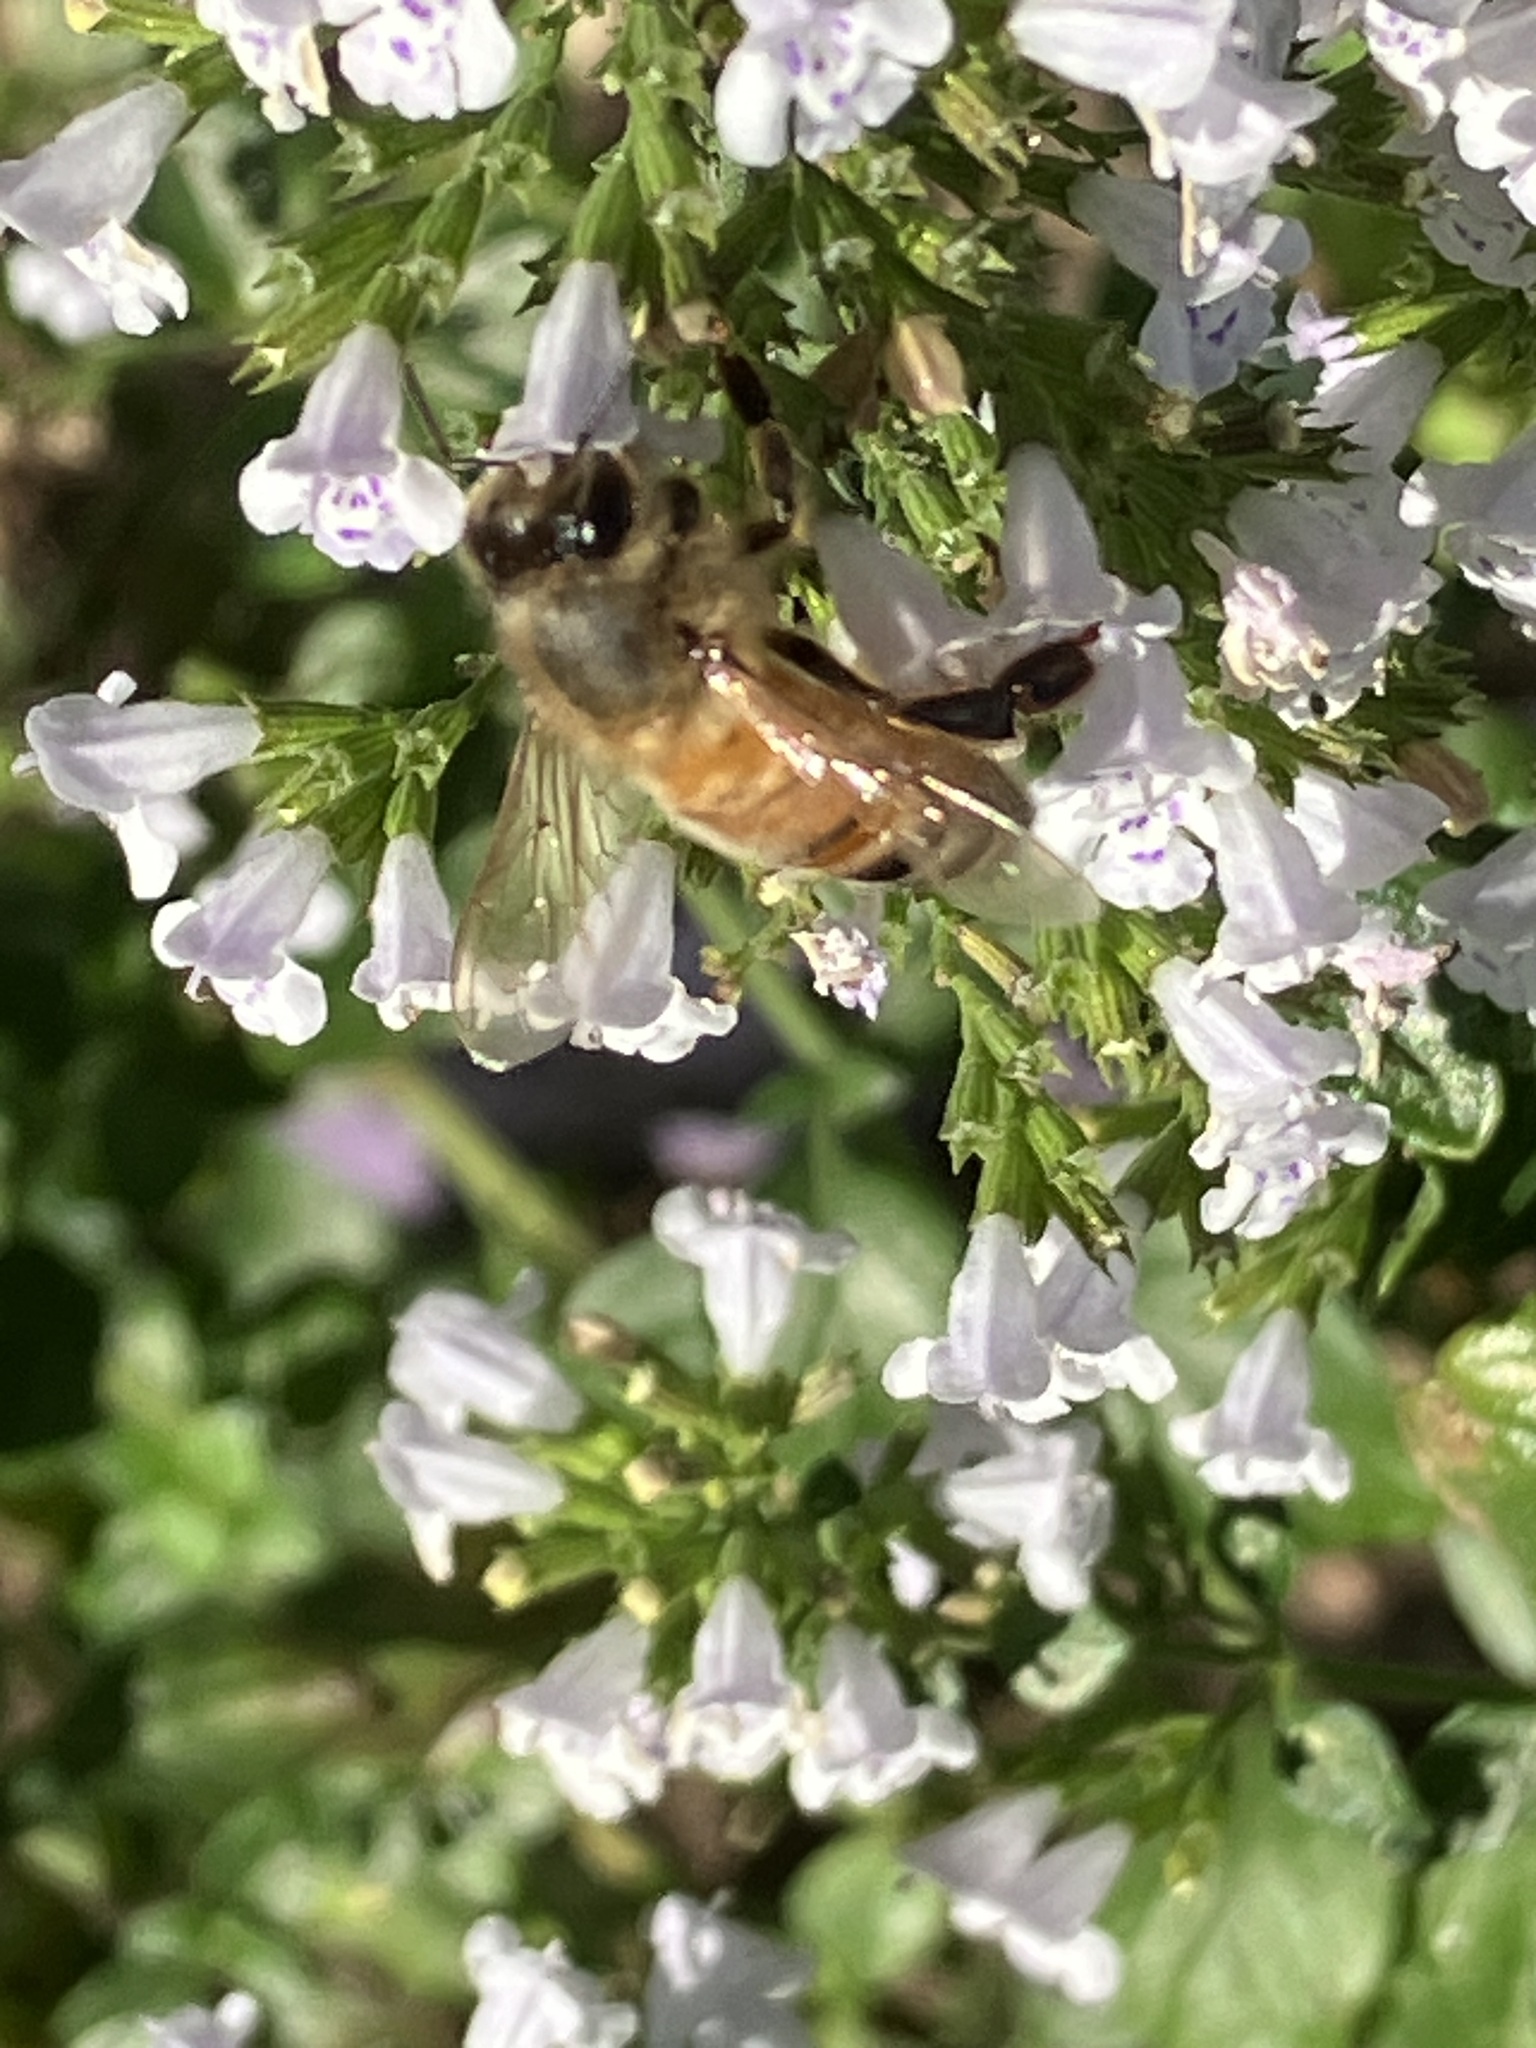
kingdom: Animalia
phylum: Arthropoda
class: Insecta
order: Hymenoptera
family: Apidae
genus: Apis
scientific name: Apis mellifera
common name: Honey bee
